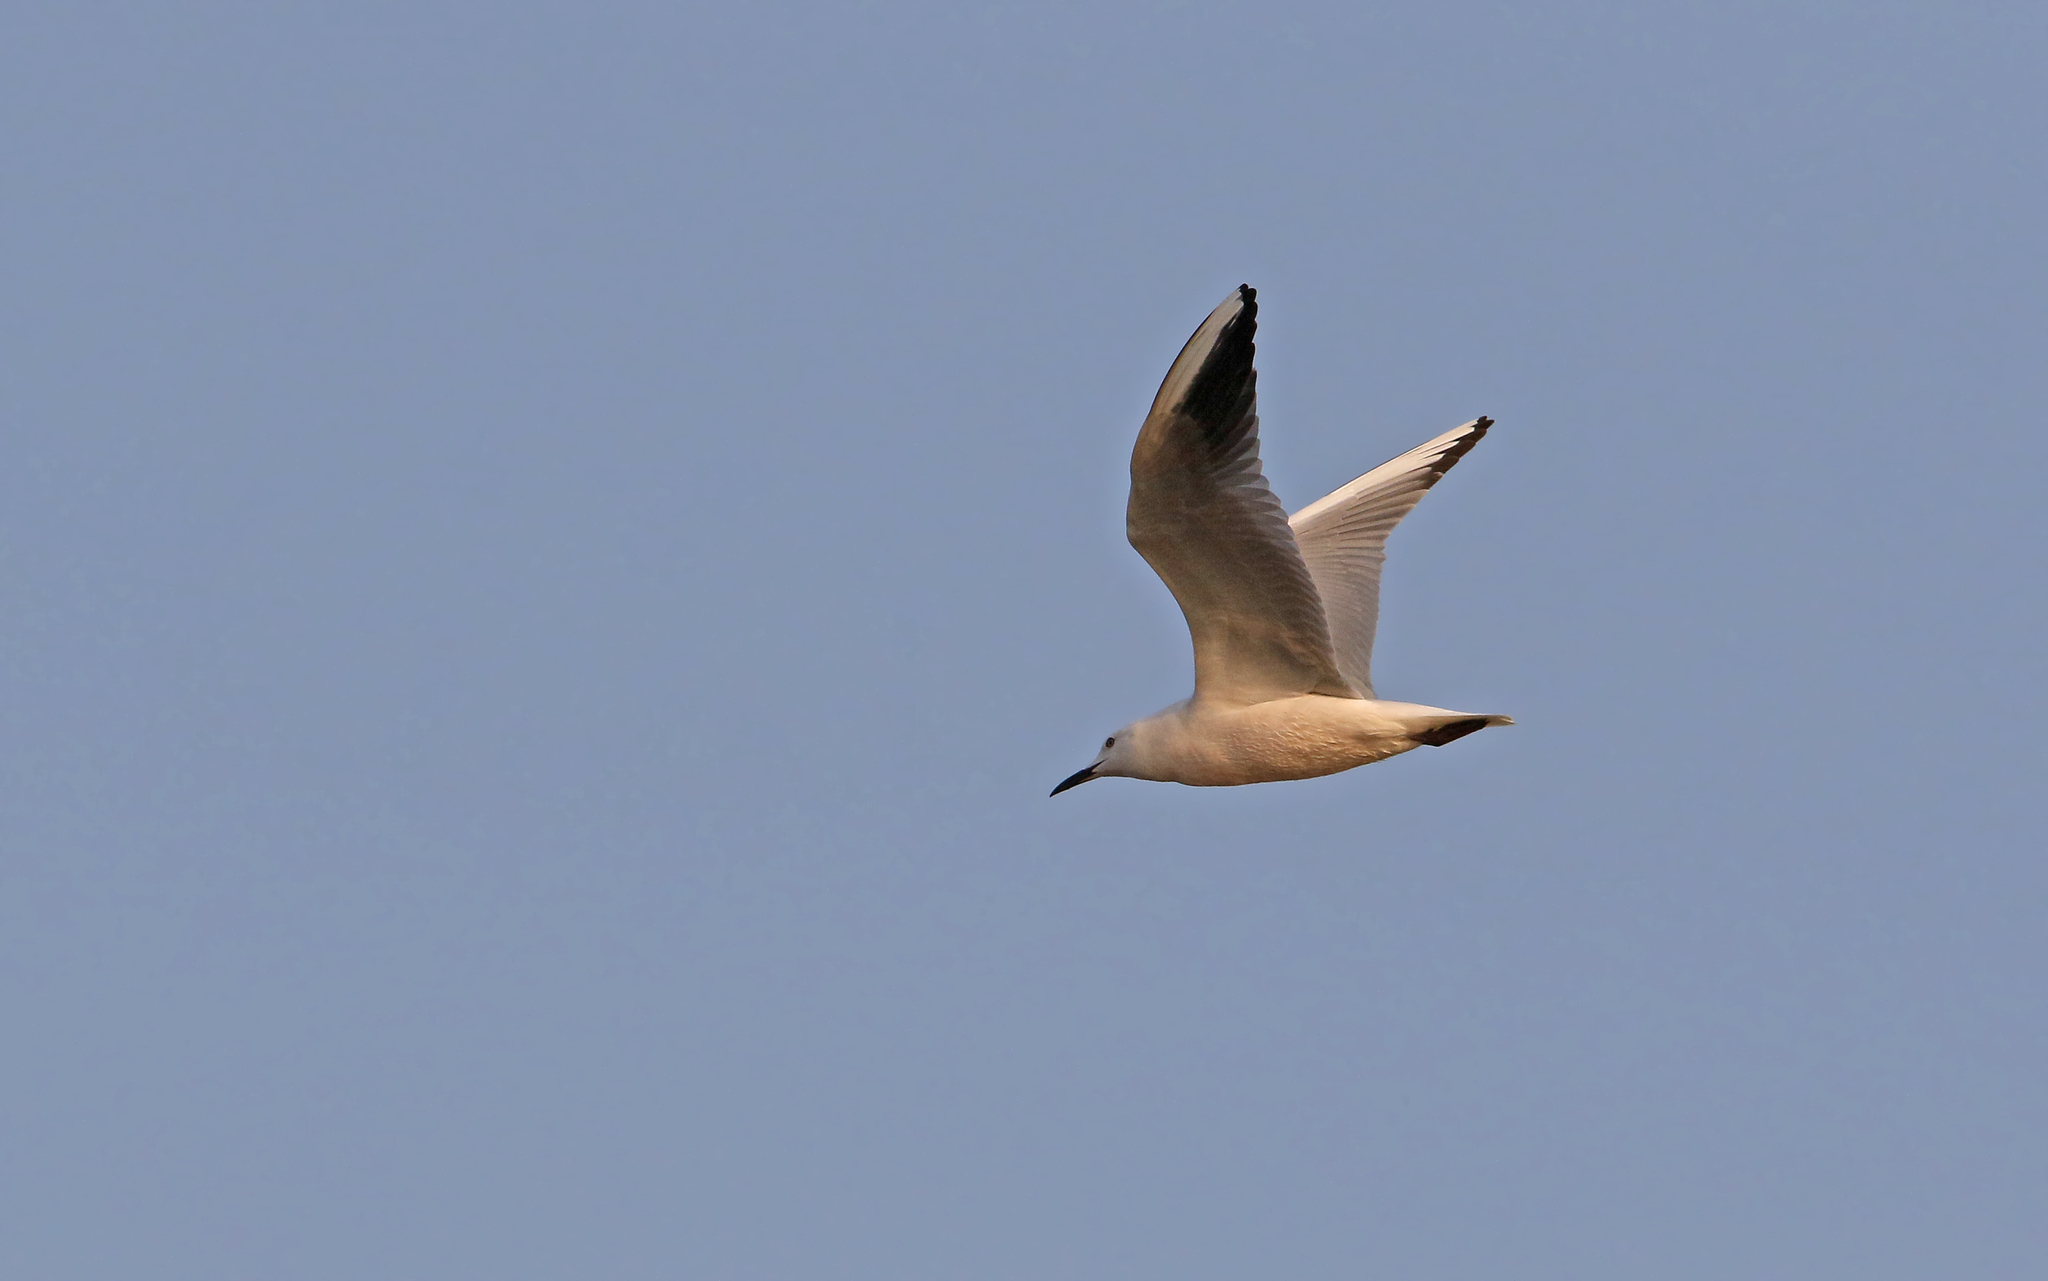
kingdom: Animalia
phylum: Chordata
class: Aves
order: Charadriiformes
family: Laridae
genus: Chroicocephalus
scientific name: Chroicocephalus genei
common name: Slender-billed gull
